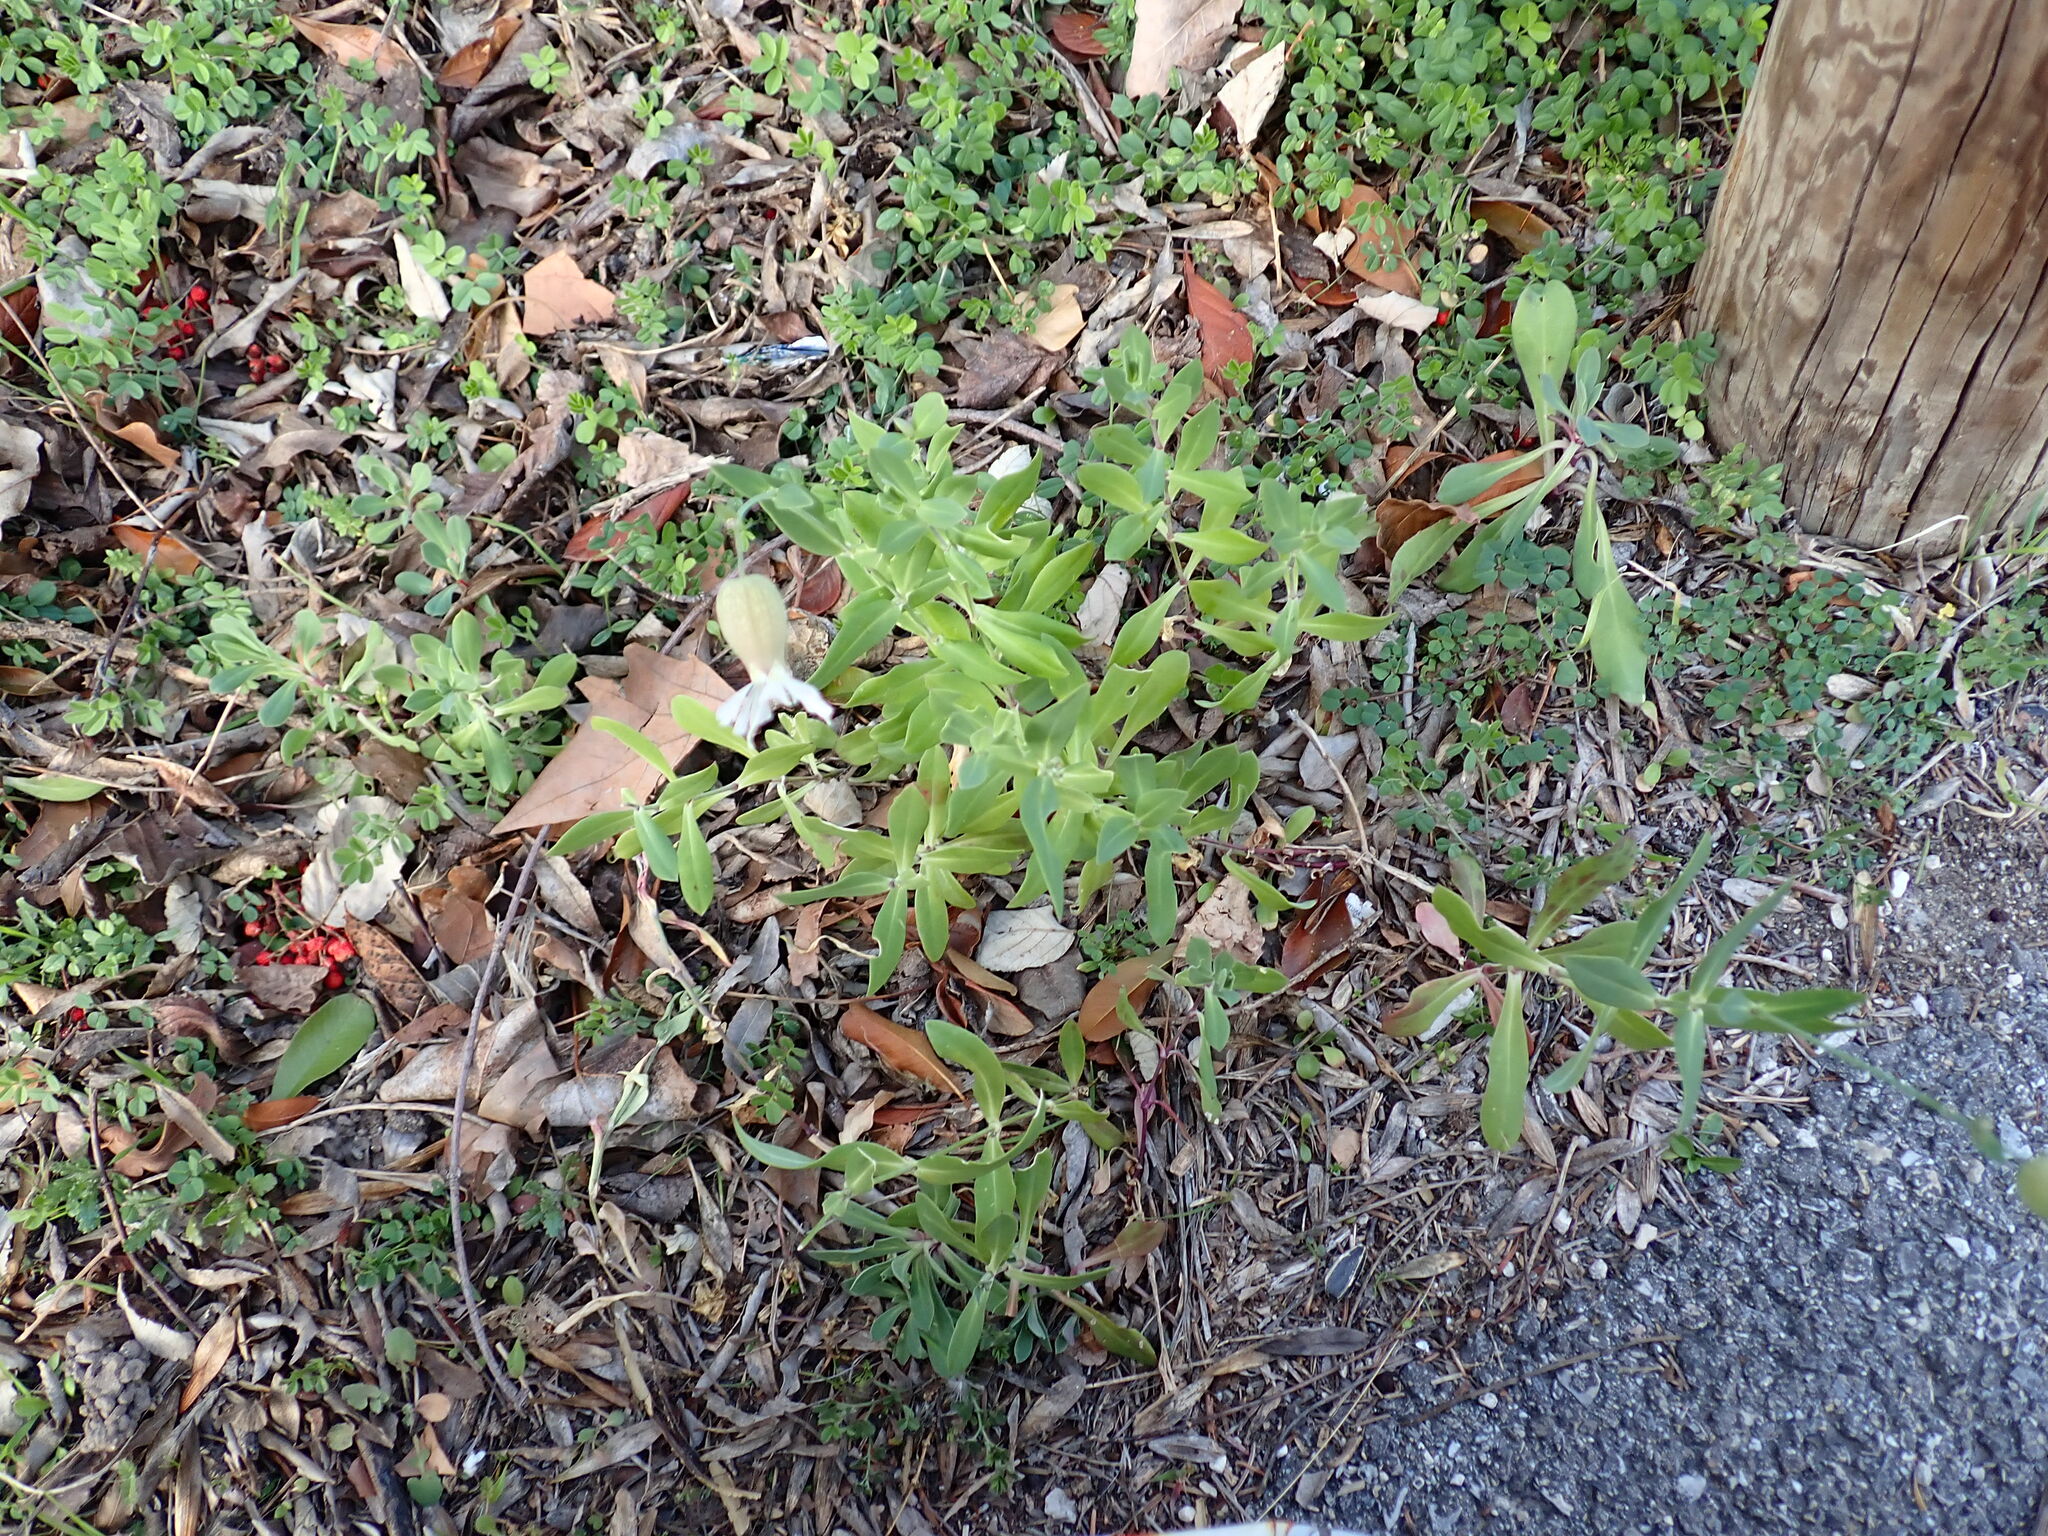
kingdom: Plantae
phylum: Tracheophyta
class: Magnoliopsida
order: Caryophyllales
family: Caryophyllaceae
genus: Silene
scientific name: Silene latifolia
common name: White campion
